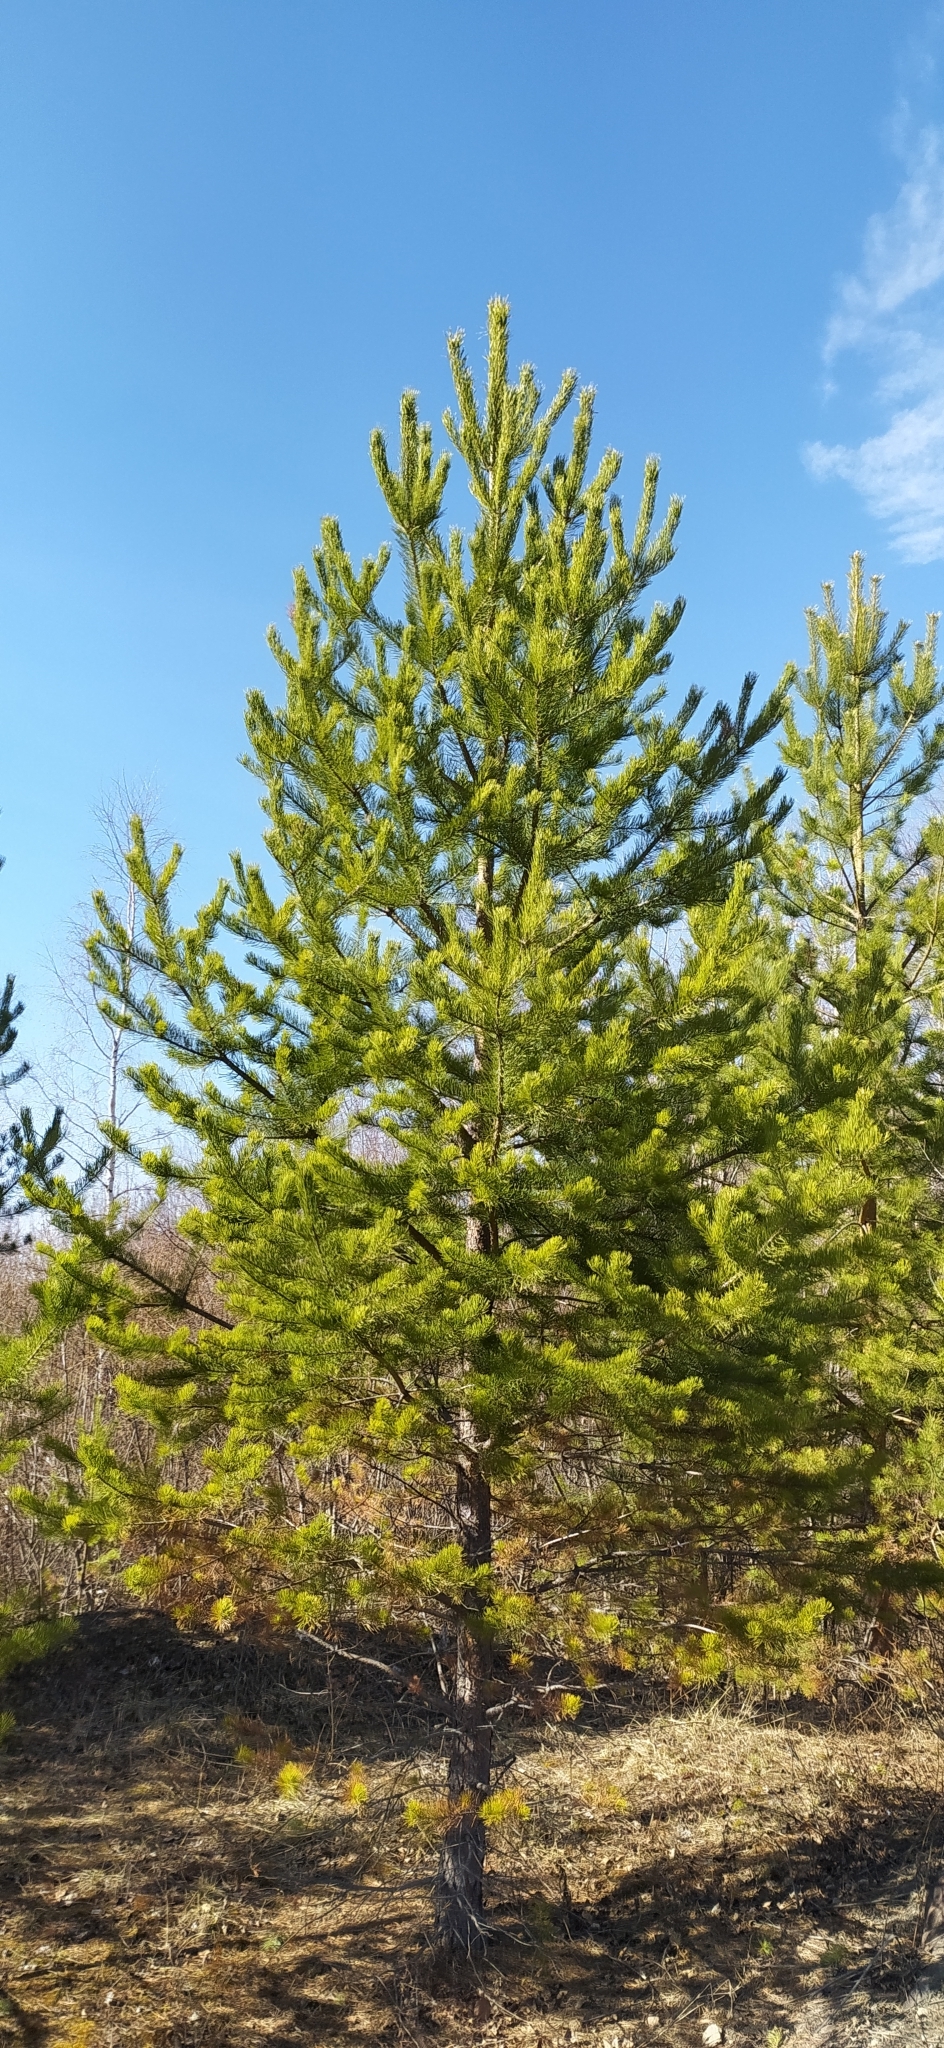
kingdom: Plantae
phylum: Tracheophyta
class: Pinopsida
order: Pinales
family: Pinaceae
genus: Pinus
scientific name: Pinus sylvestris
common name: Scots pine
